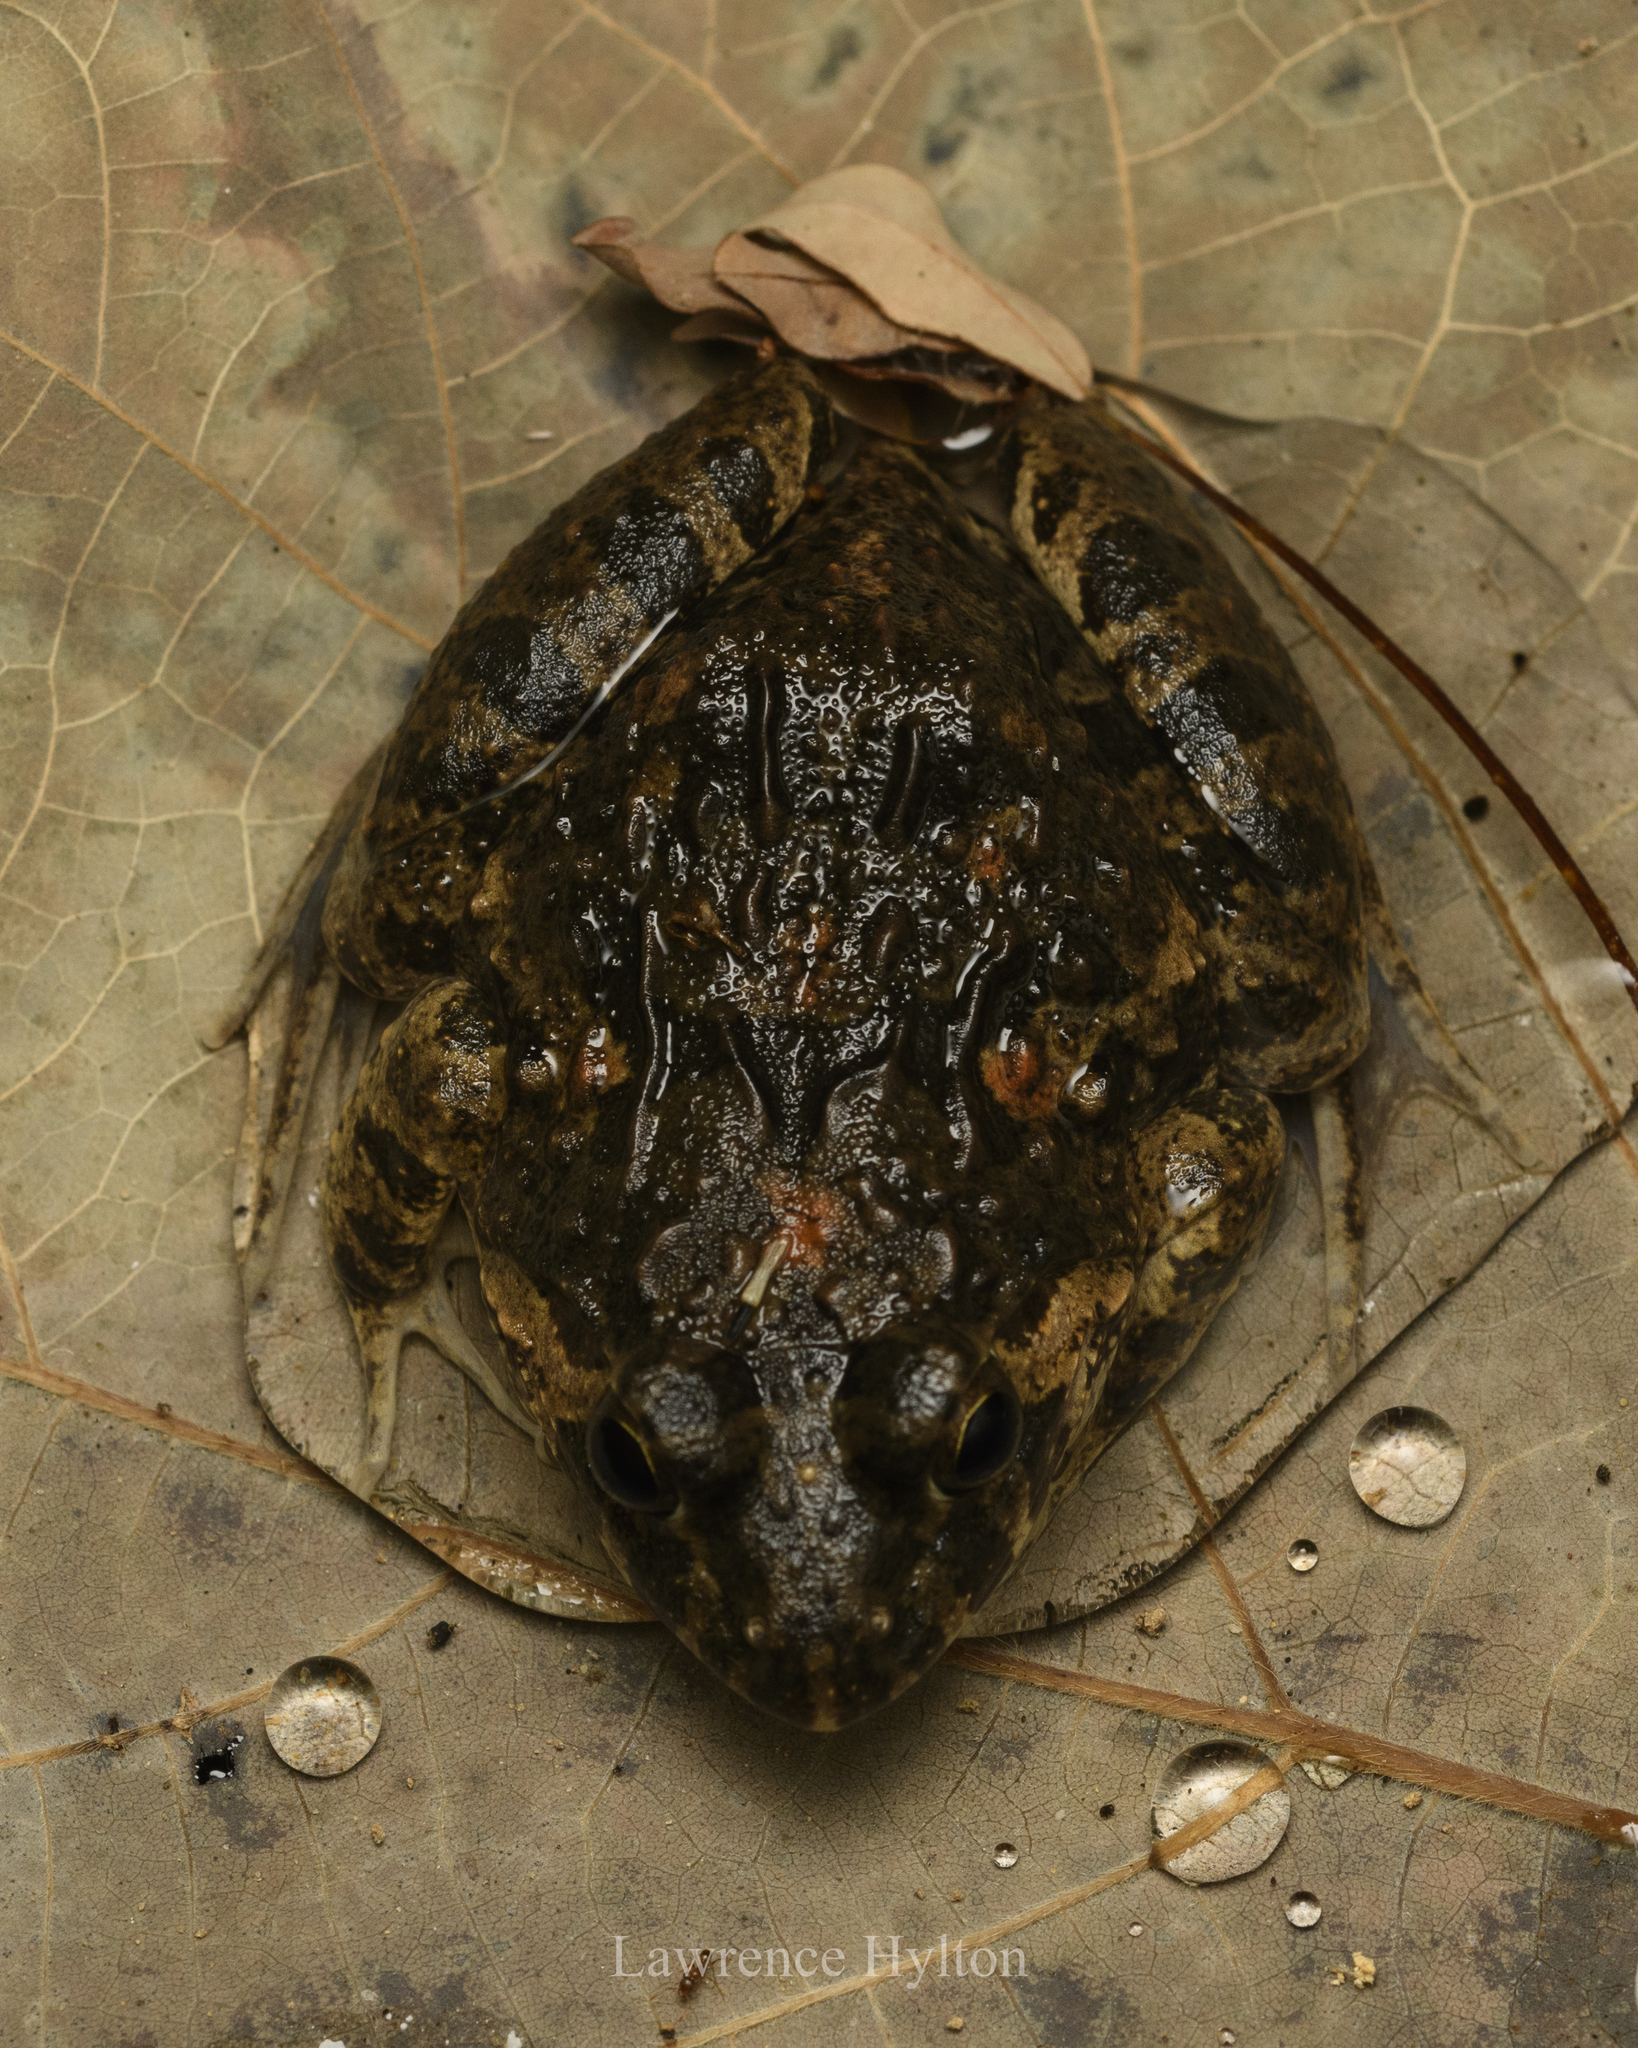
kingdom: Animalia
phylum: Chordata
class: Amphibia
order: Anura
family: Dicroglossidae
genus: Fejervarya
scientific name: Fejervarya multistriata
